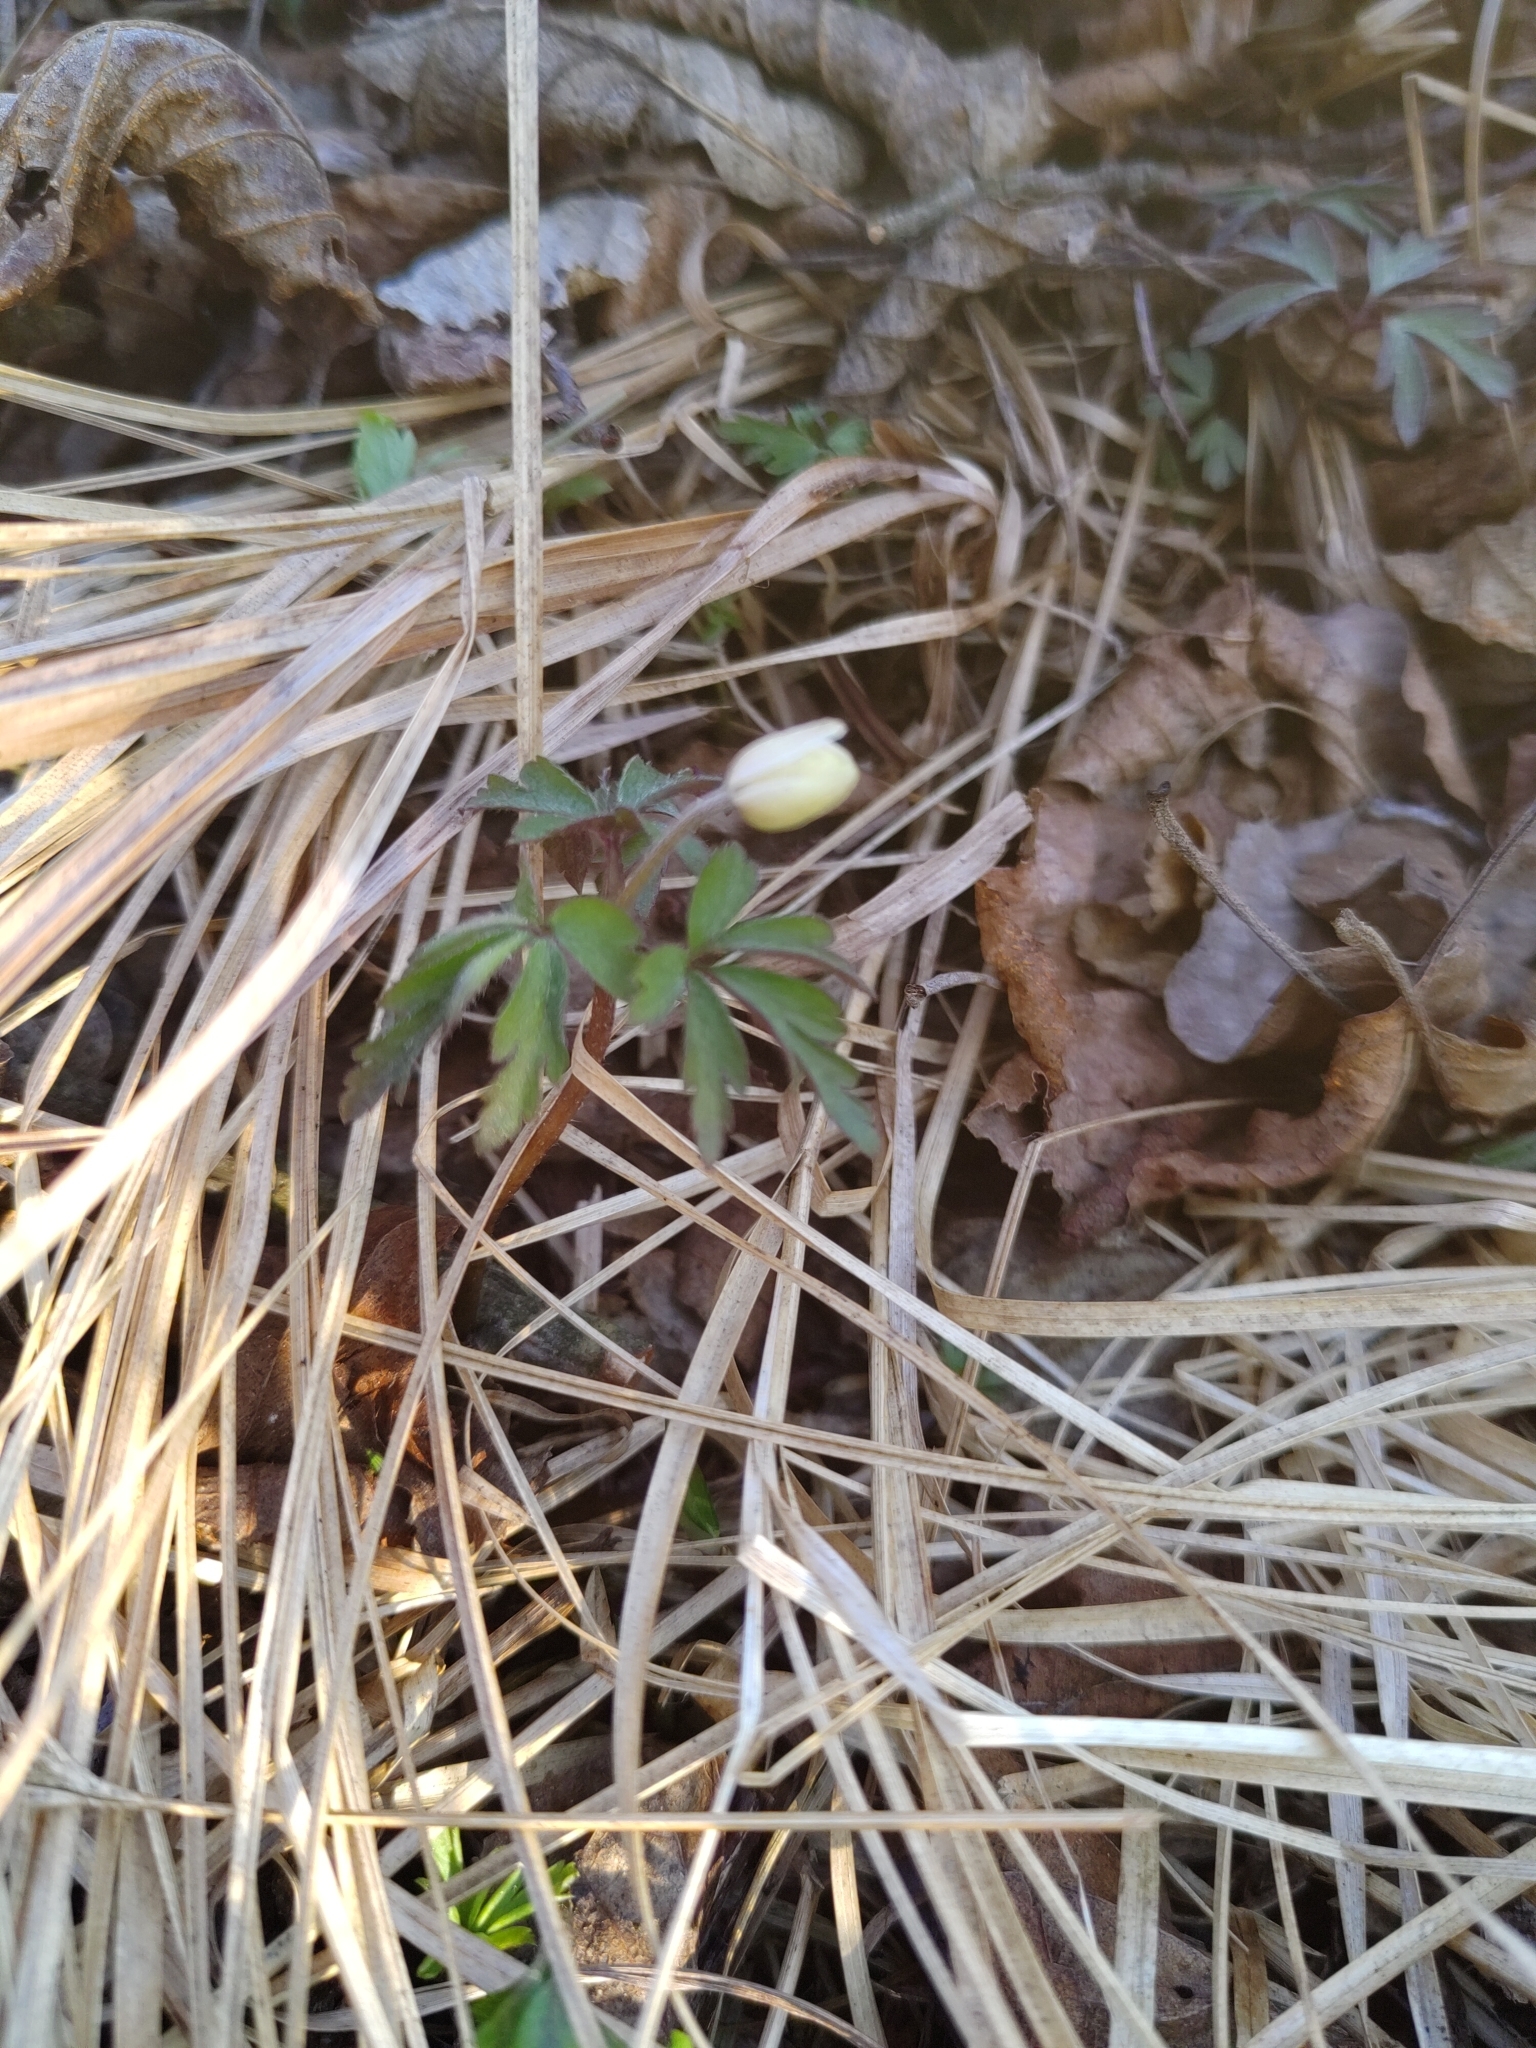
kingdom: Plantae
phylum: Tracheophyta
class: Magnoliopsida
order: Ranunculales
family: Ranunculaceae
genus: Anemone
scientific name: Anemone nemorosa
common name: Wood anemone
